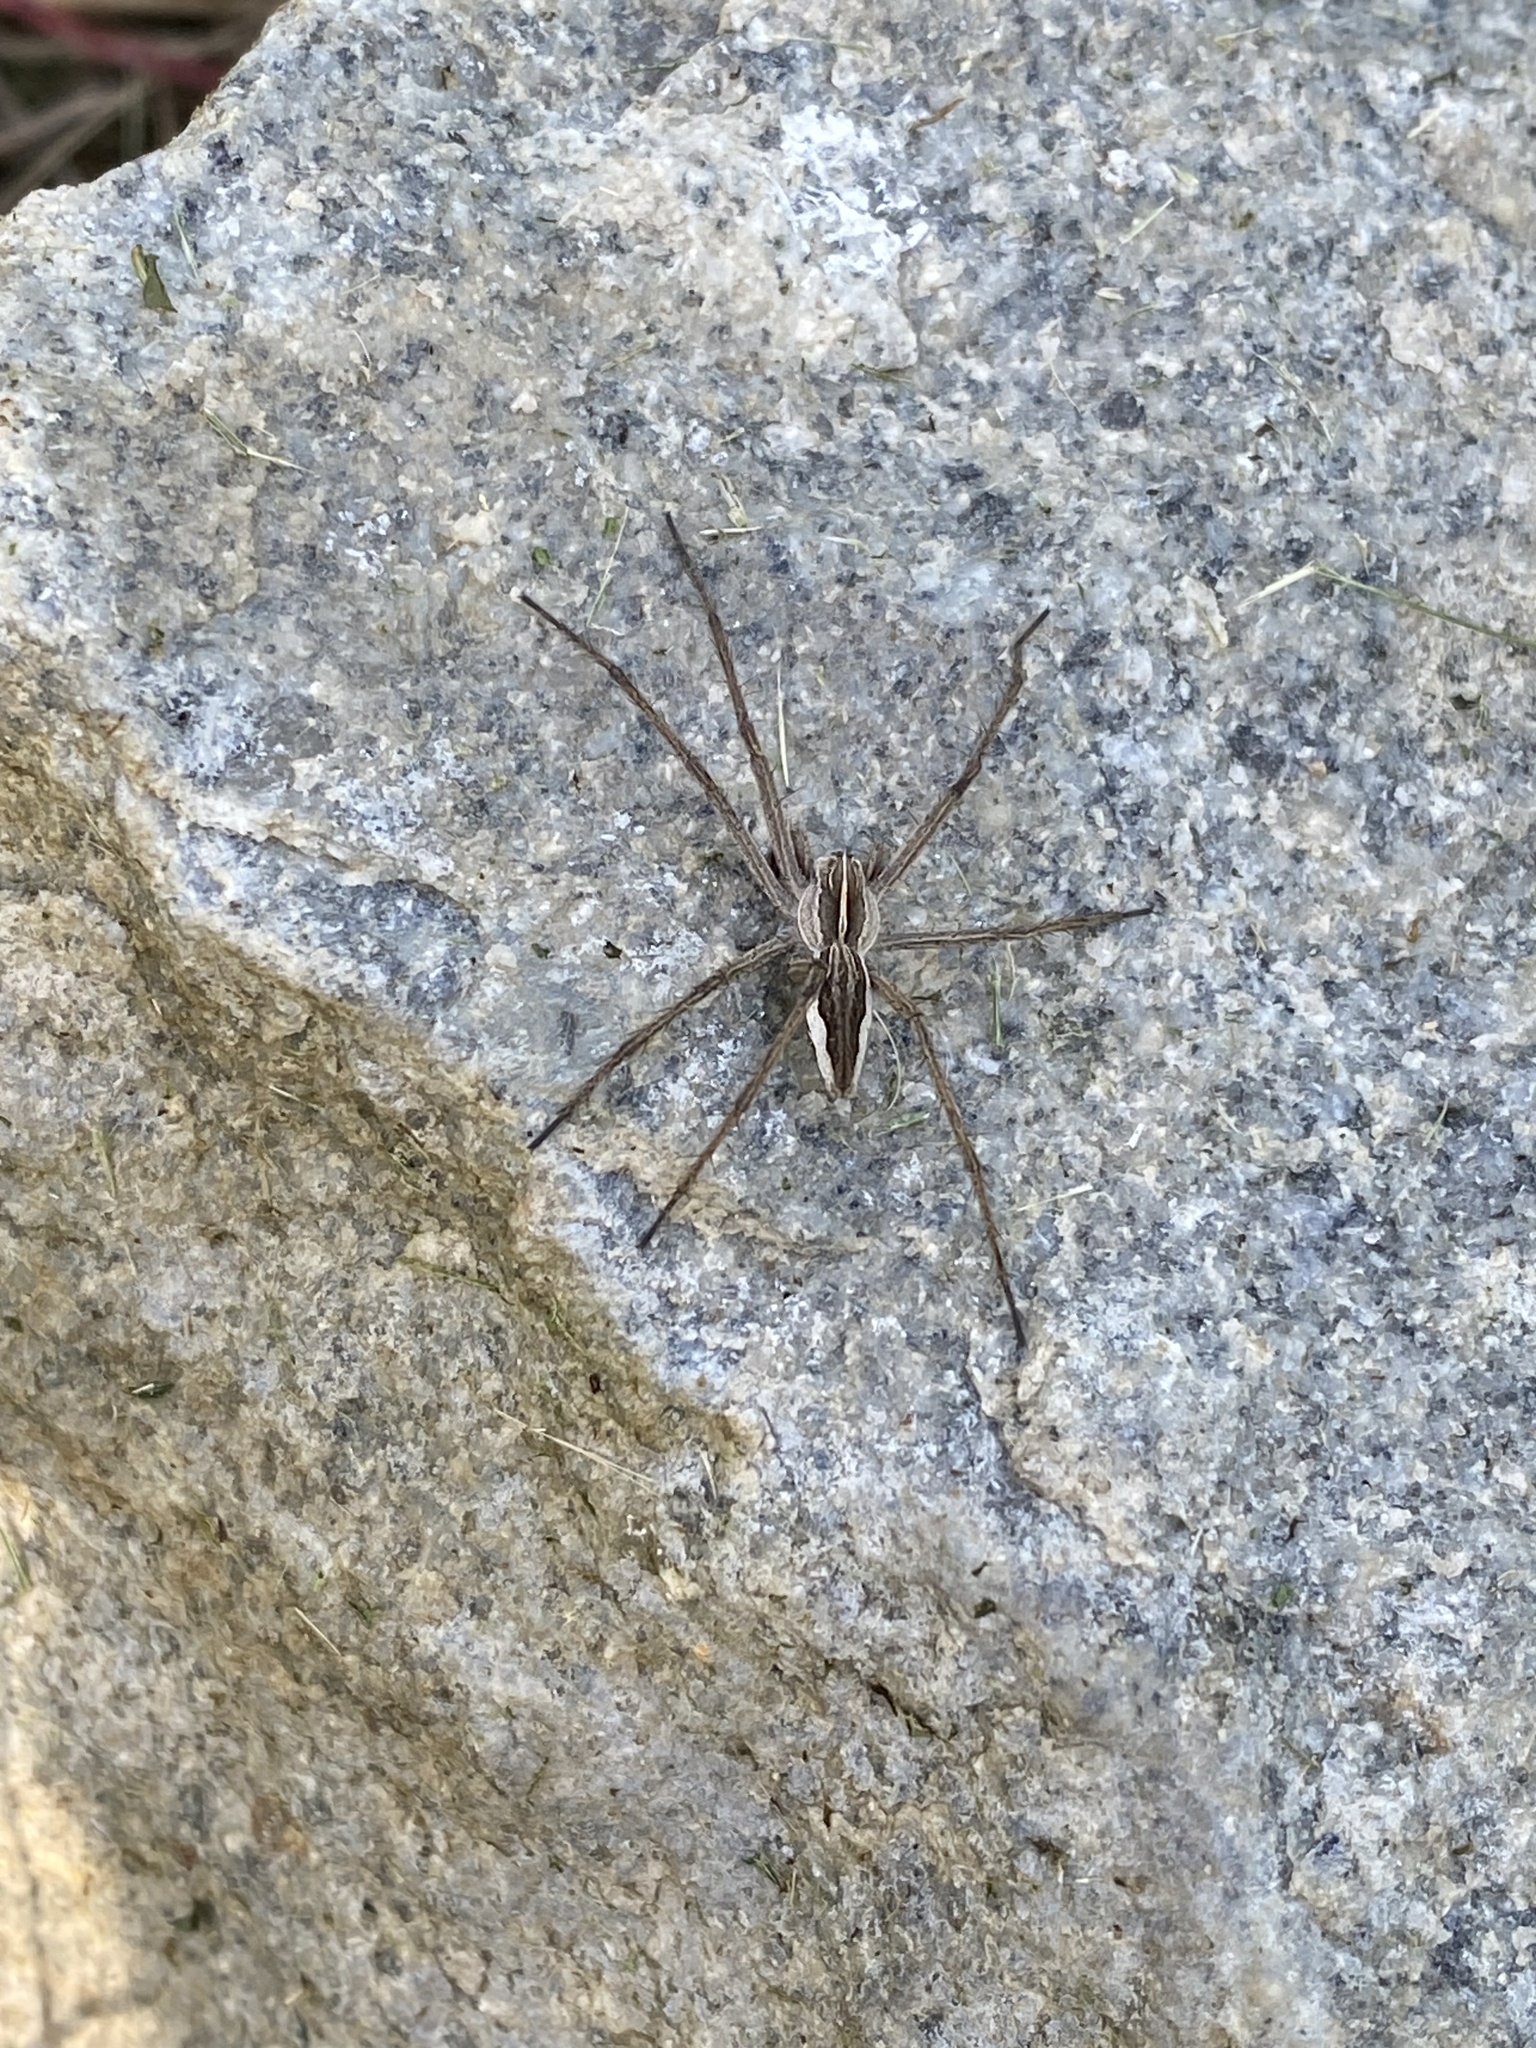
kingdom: Animalia
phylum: Arthropoda
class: Arachnida
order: Araneae
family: Pisauridae
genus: Pisaura
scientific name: Pisaura mirabilis
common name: Tent spider
